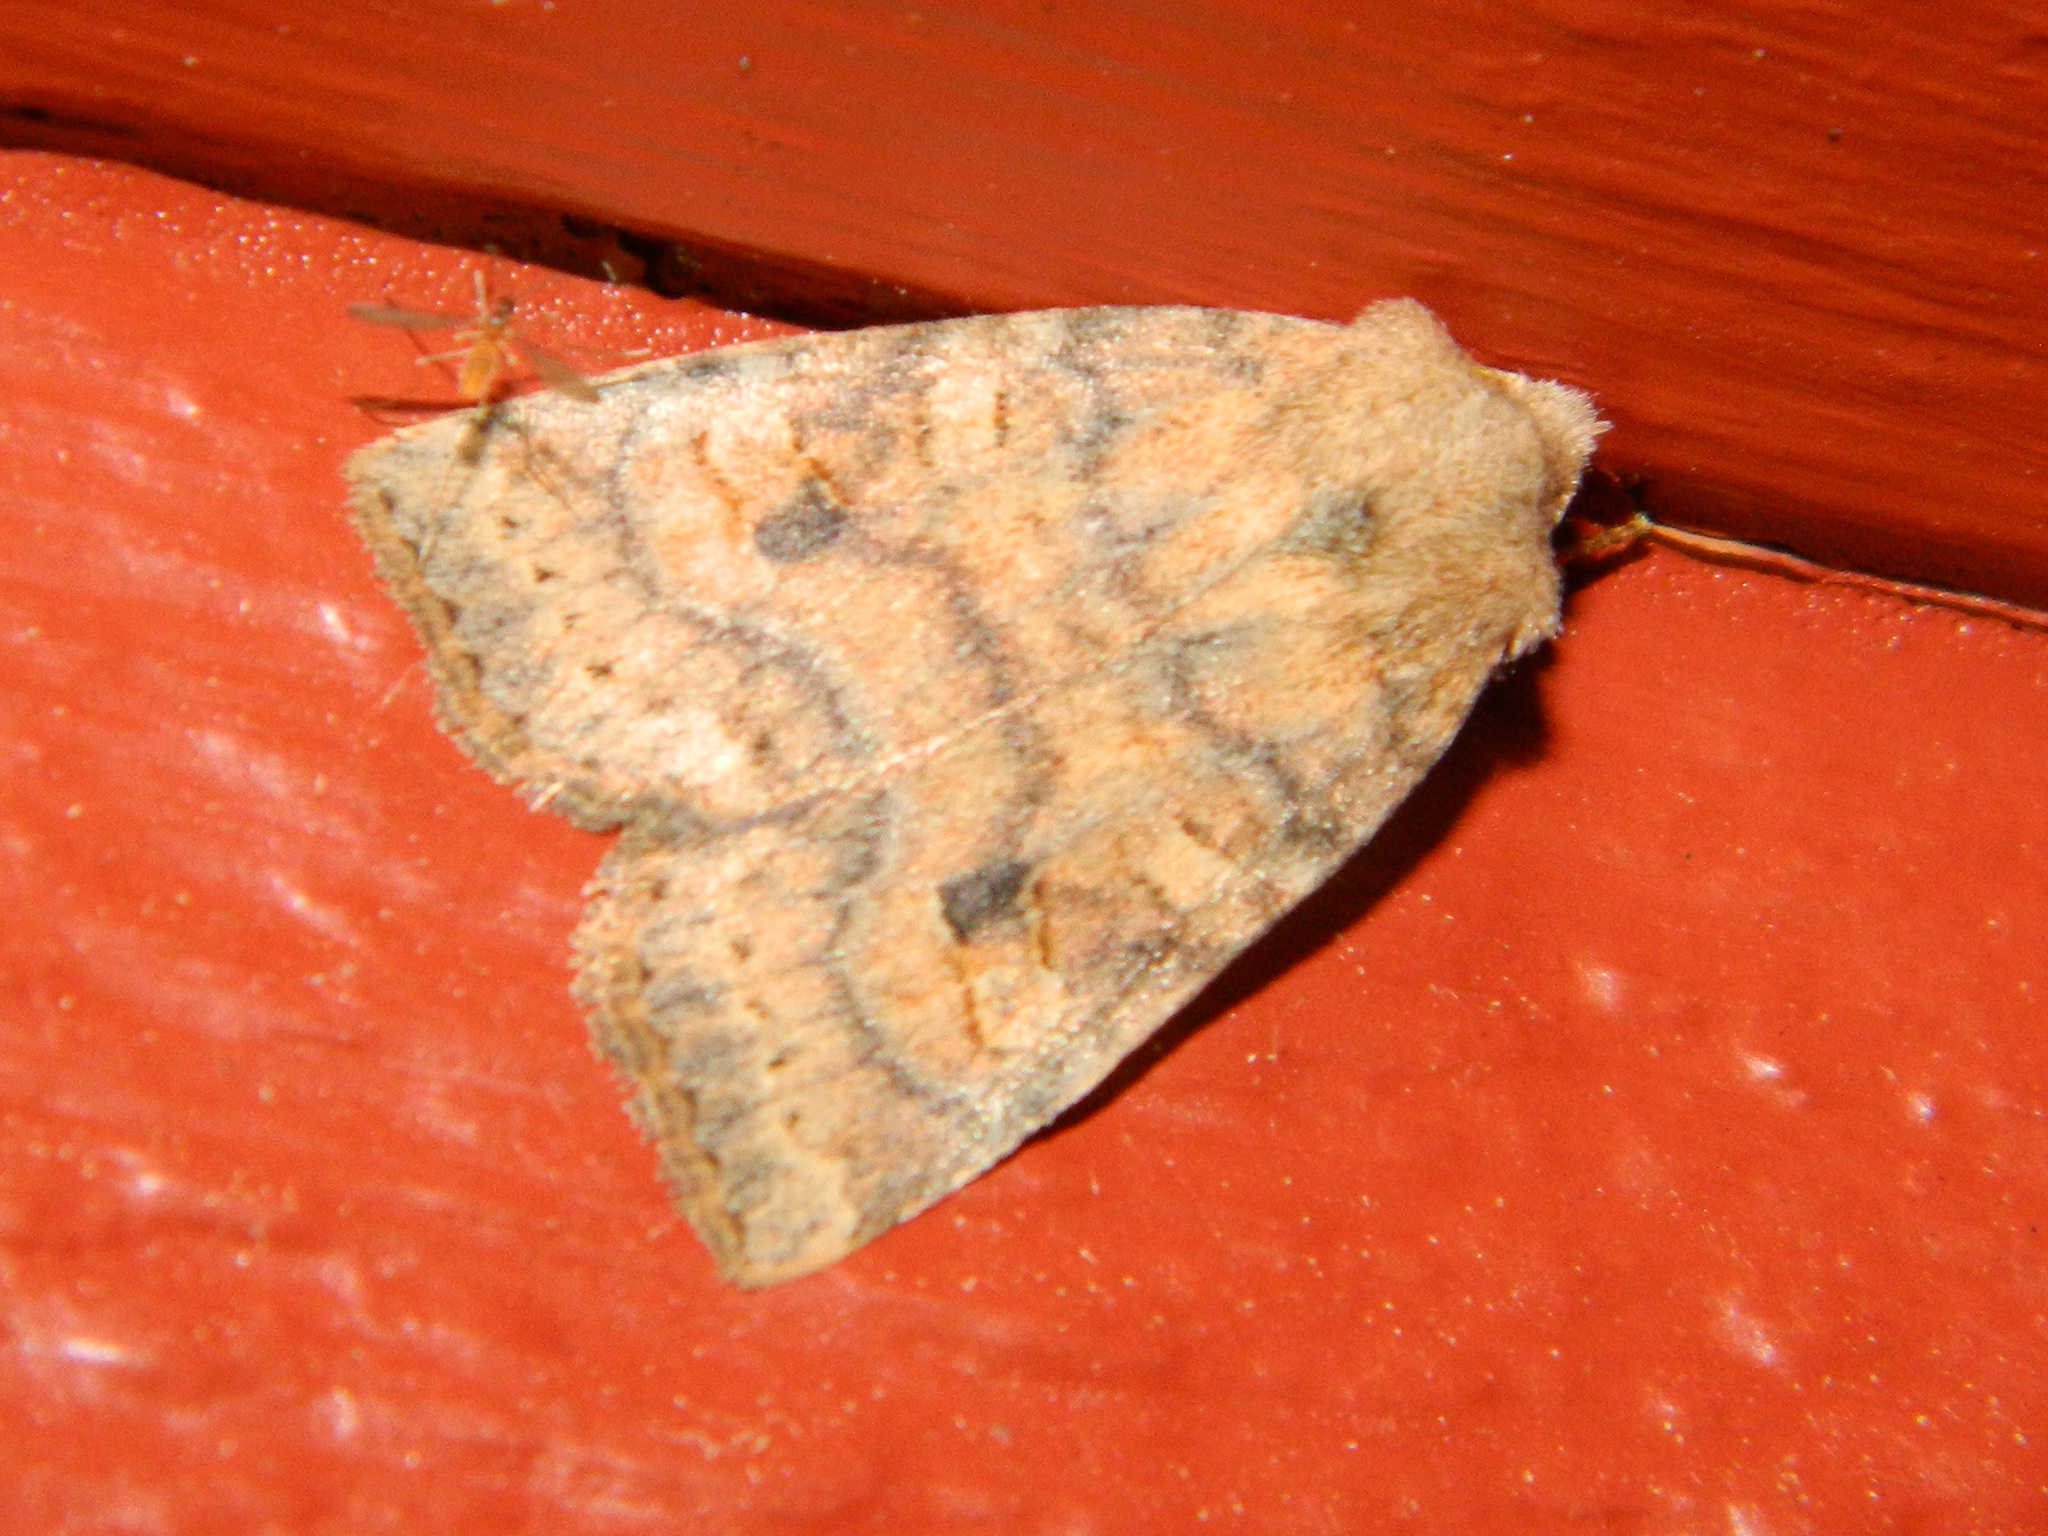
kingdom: Animalia
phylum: Arthropoda
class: Insecta
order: Lepidoptera
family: Noctuidae
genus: Anathix
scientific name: Anathix ralla
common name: Dotted sallow
